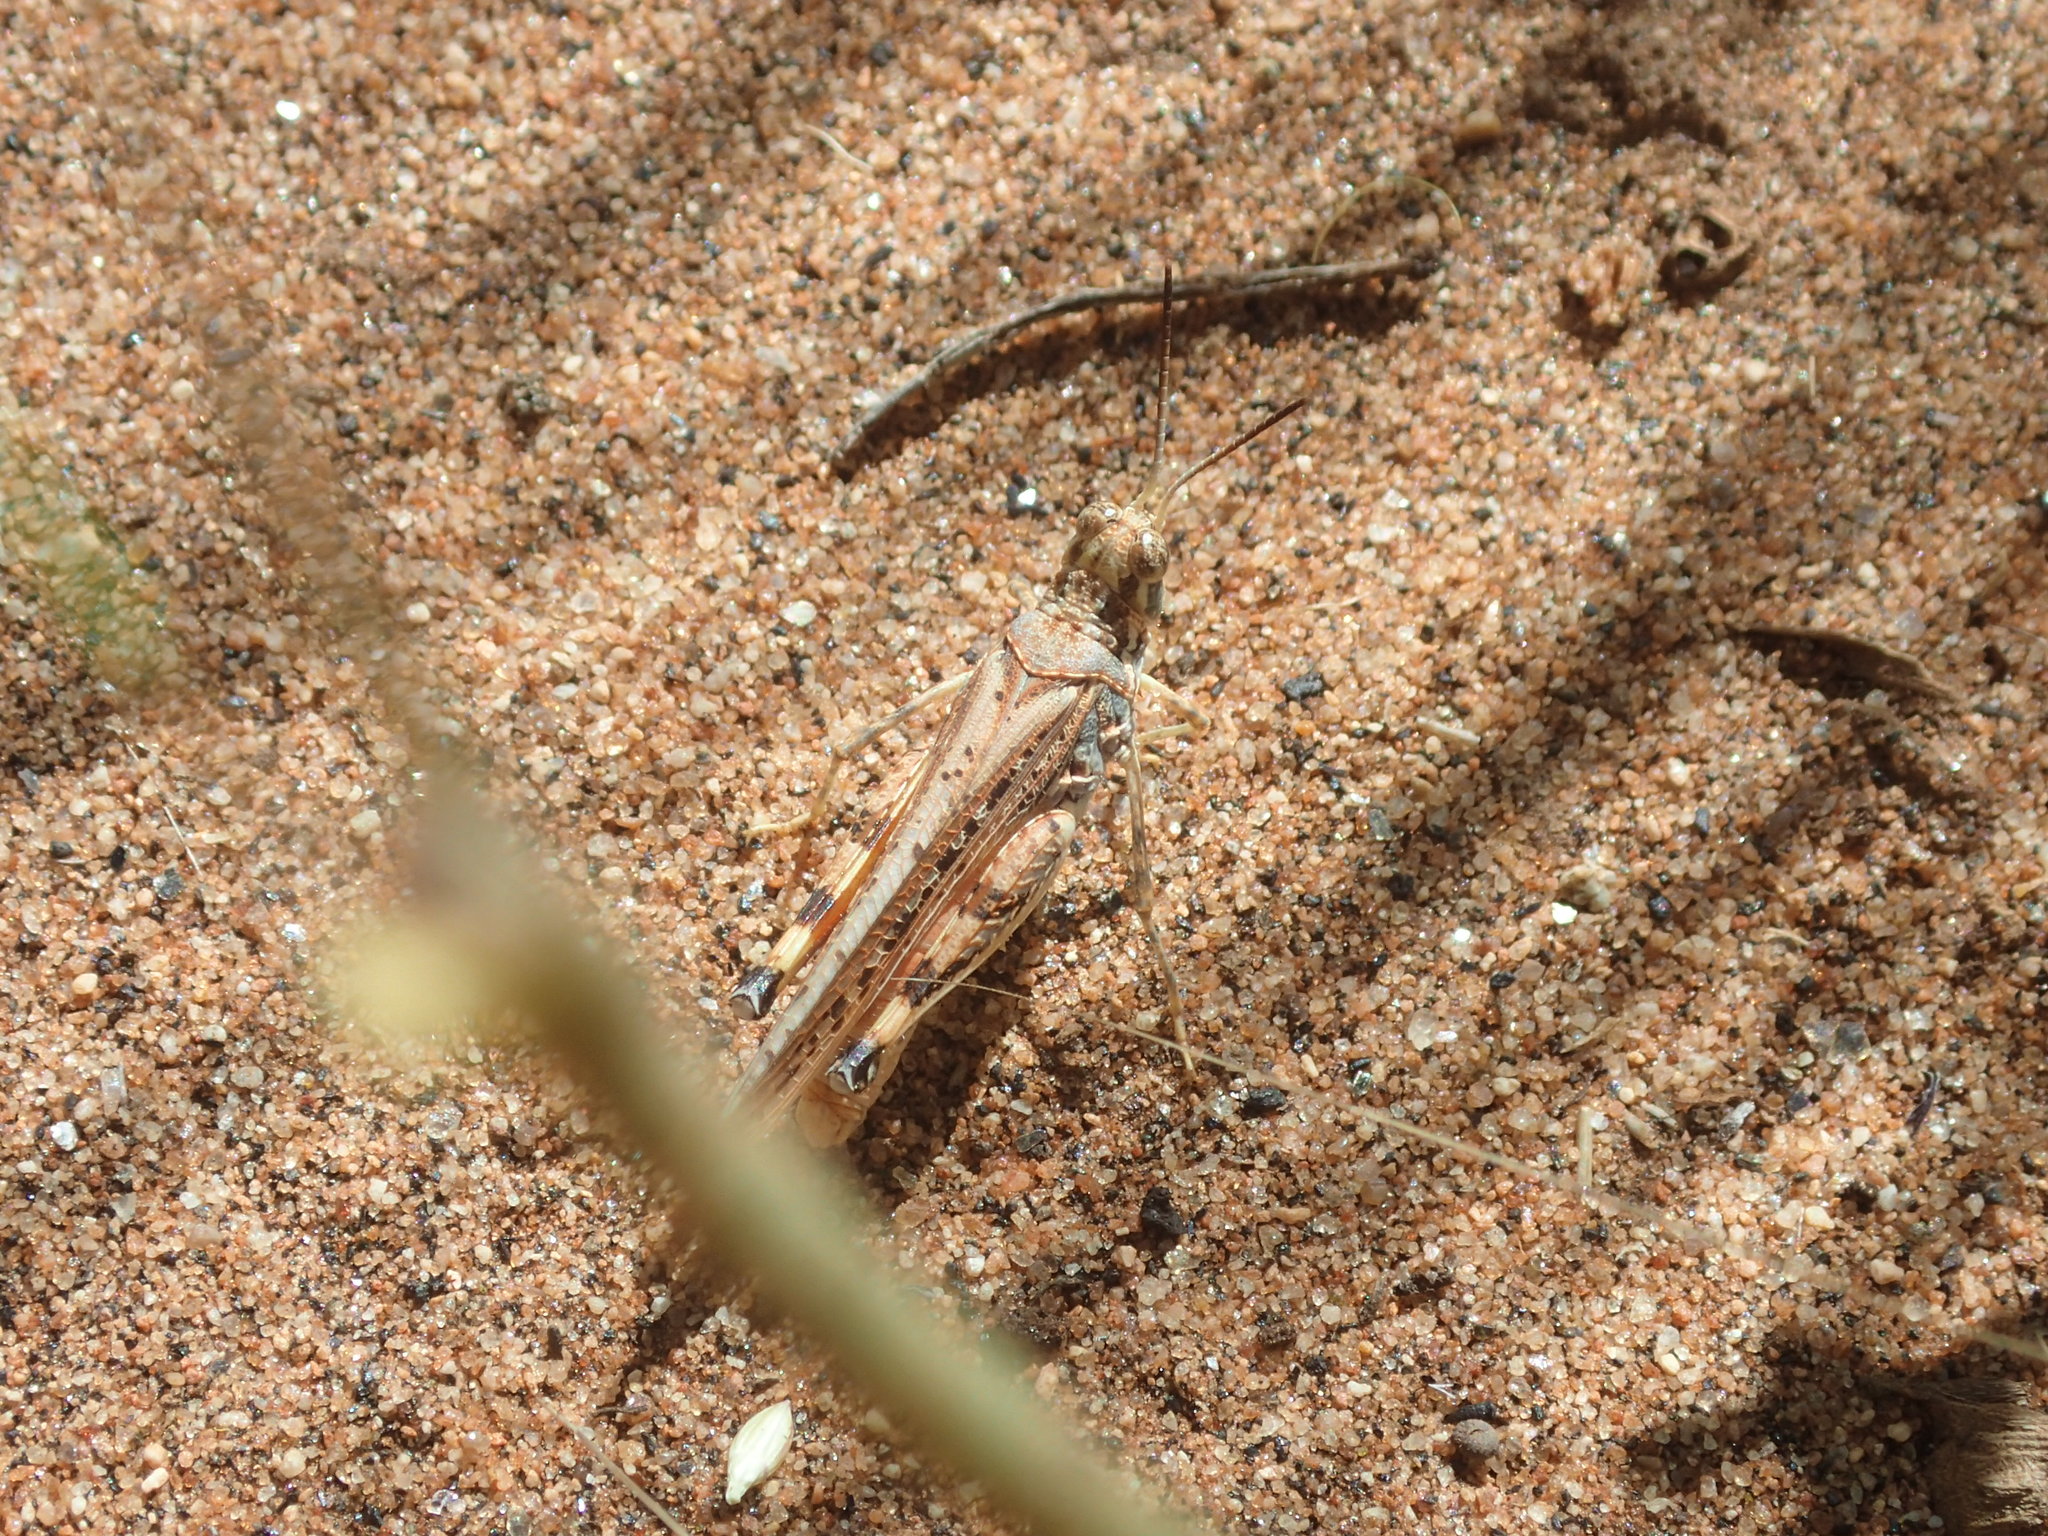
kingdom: Animalia
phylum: Arthropoda
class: Insecta
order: Orthoptera
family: Acrididae
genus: Urnisa
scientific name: Urnisa guttulosa
